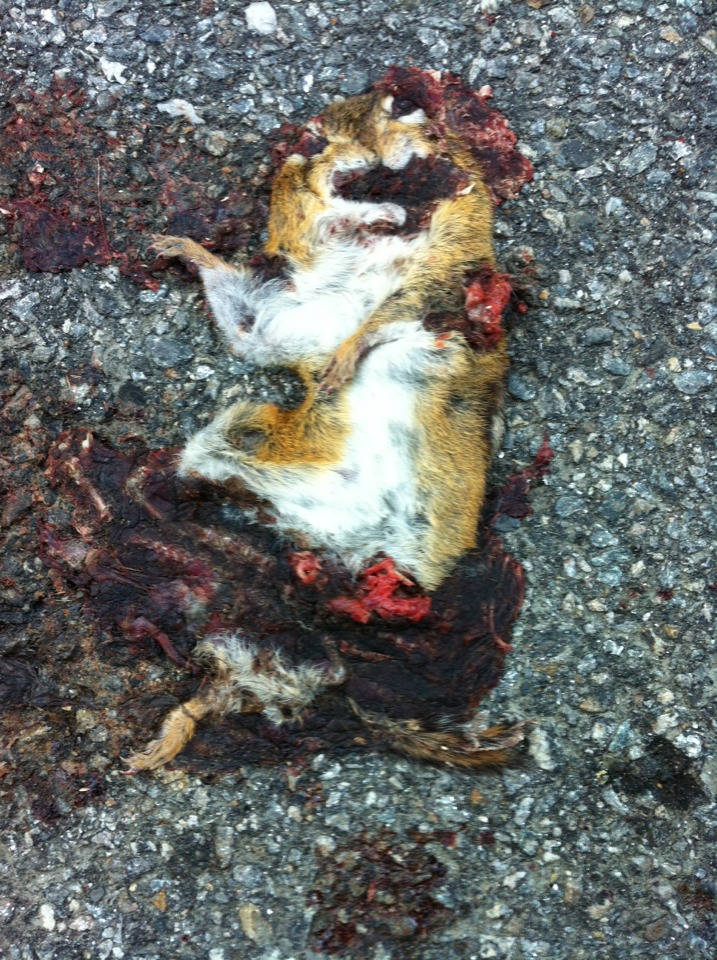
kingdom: Animalia
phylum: Chordata
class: Mammalia
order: Rodentia
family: Sciuridae
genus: Tamias
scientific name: Tamias striatus
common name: Eastern chipmunk
